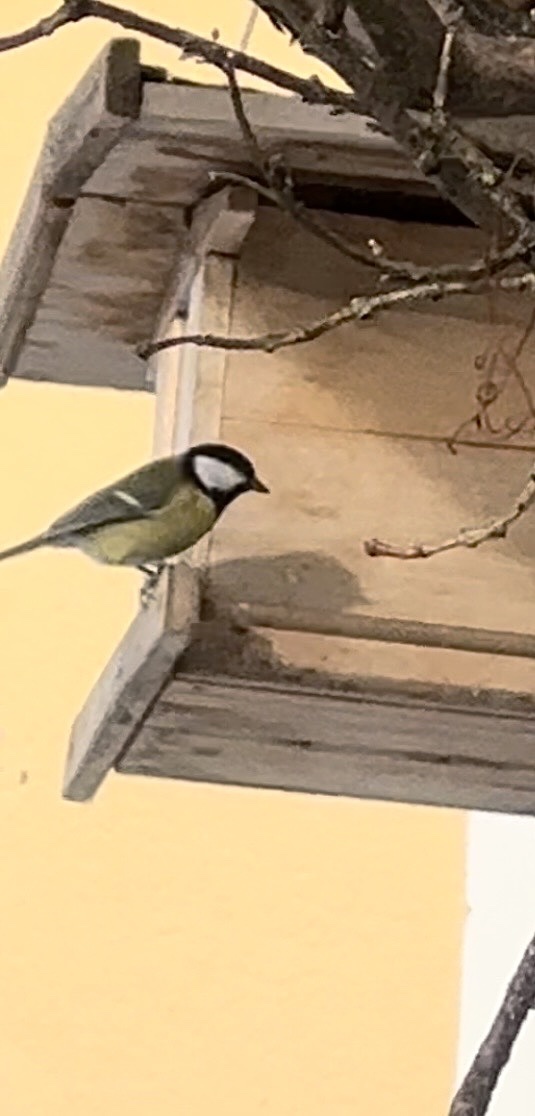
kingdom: Animalia
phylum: Chordata
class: Aves
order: Passeriformes
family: Paridae
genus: Parus
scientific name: Parus major
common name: Great tit
